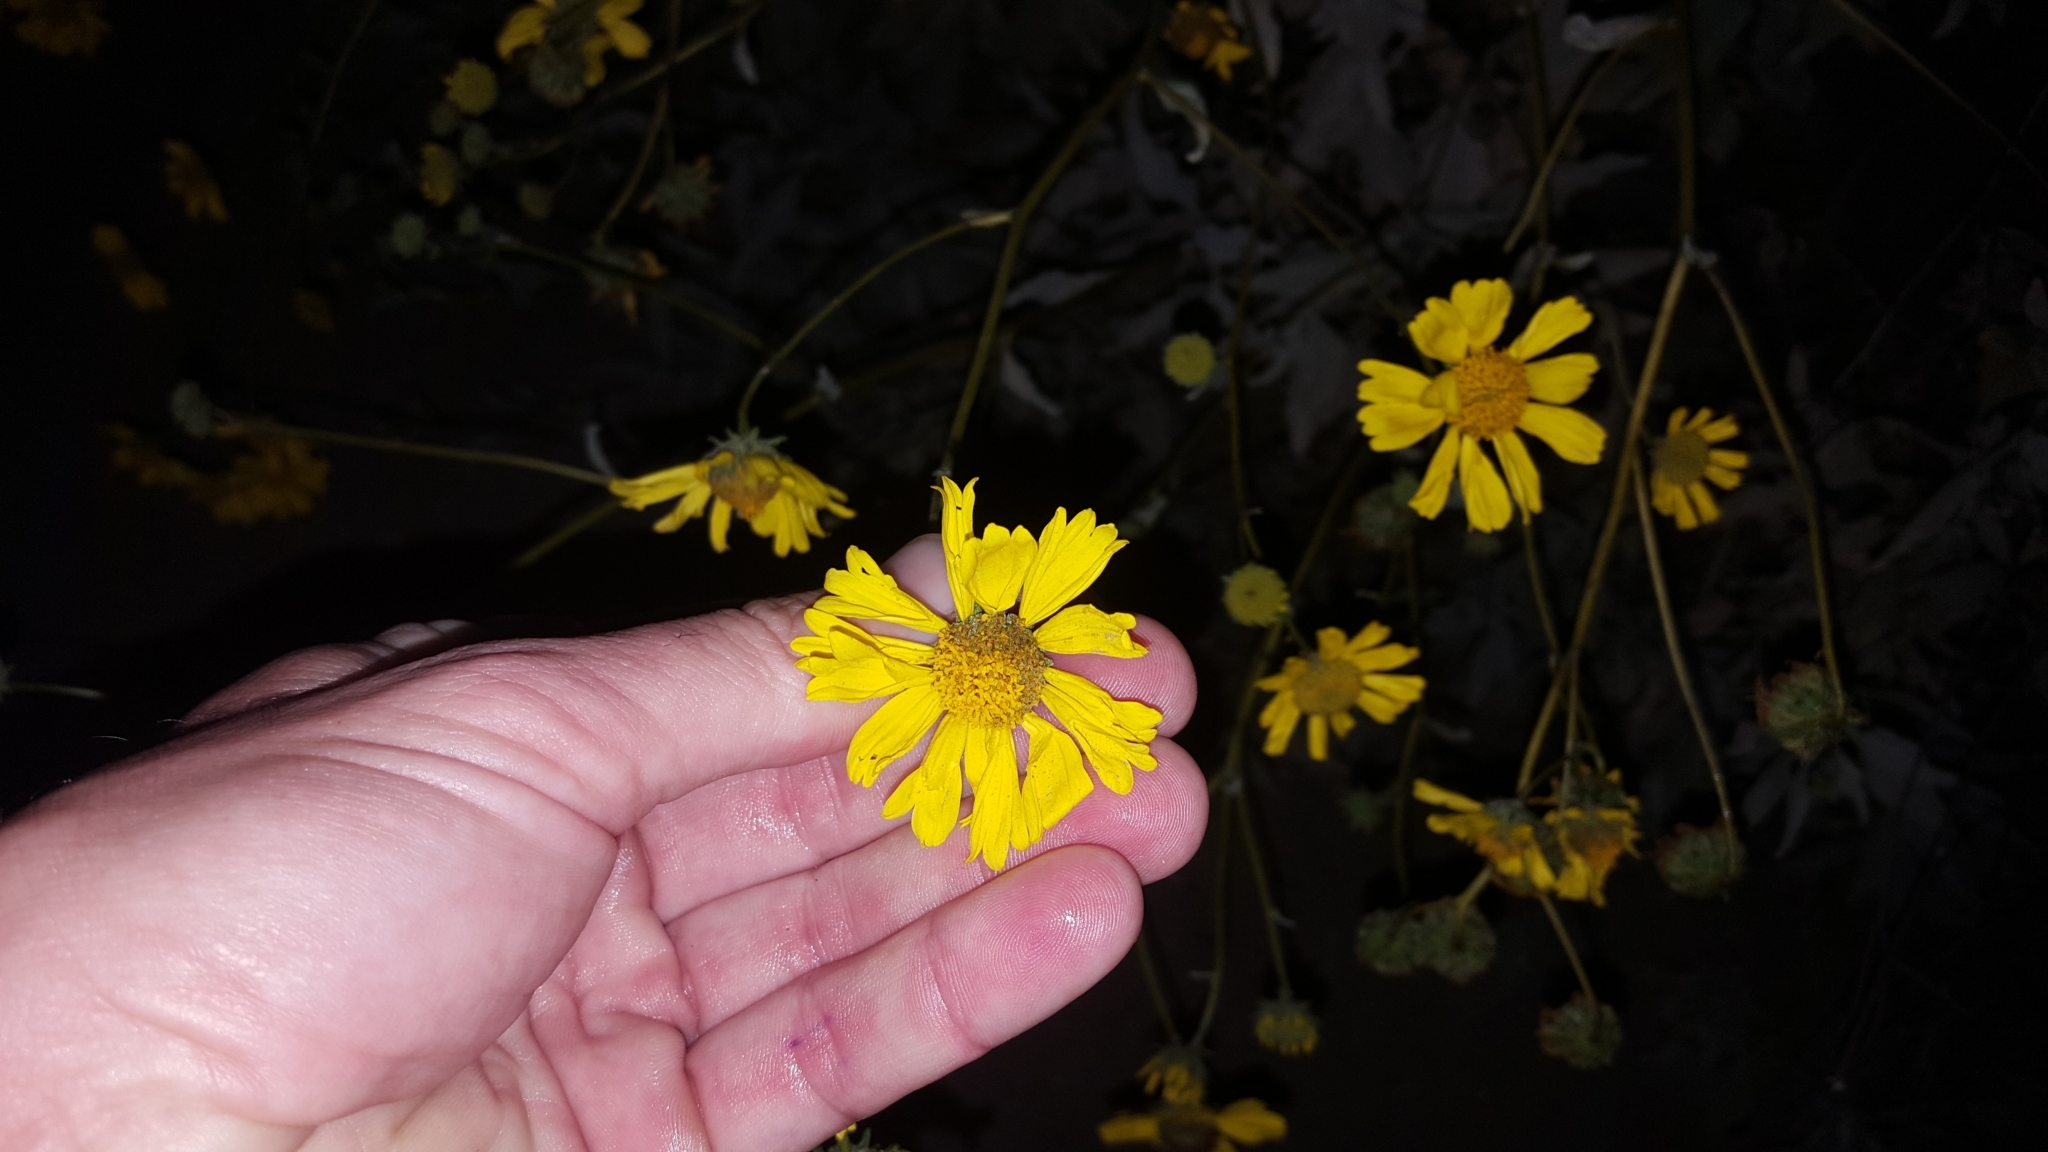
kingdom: Plantae
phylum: Tracheophyta
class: Magnoliopsida
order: Asterales
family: Asteraceae
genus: Encelia
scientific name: Encelia farinosa
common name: Brittlebush
